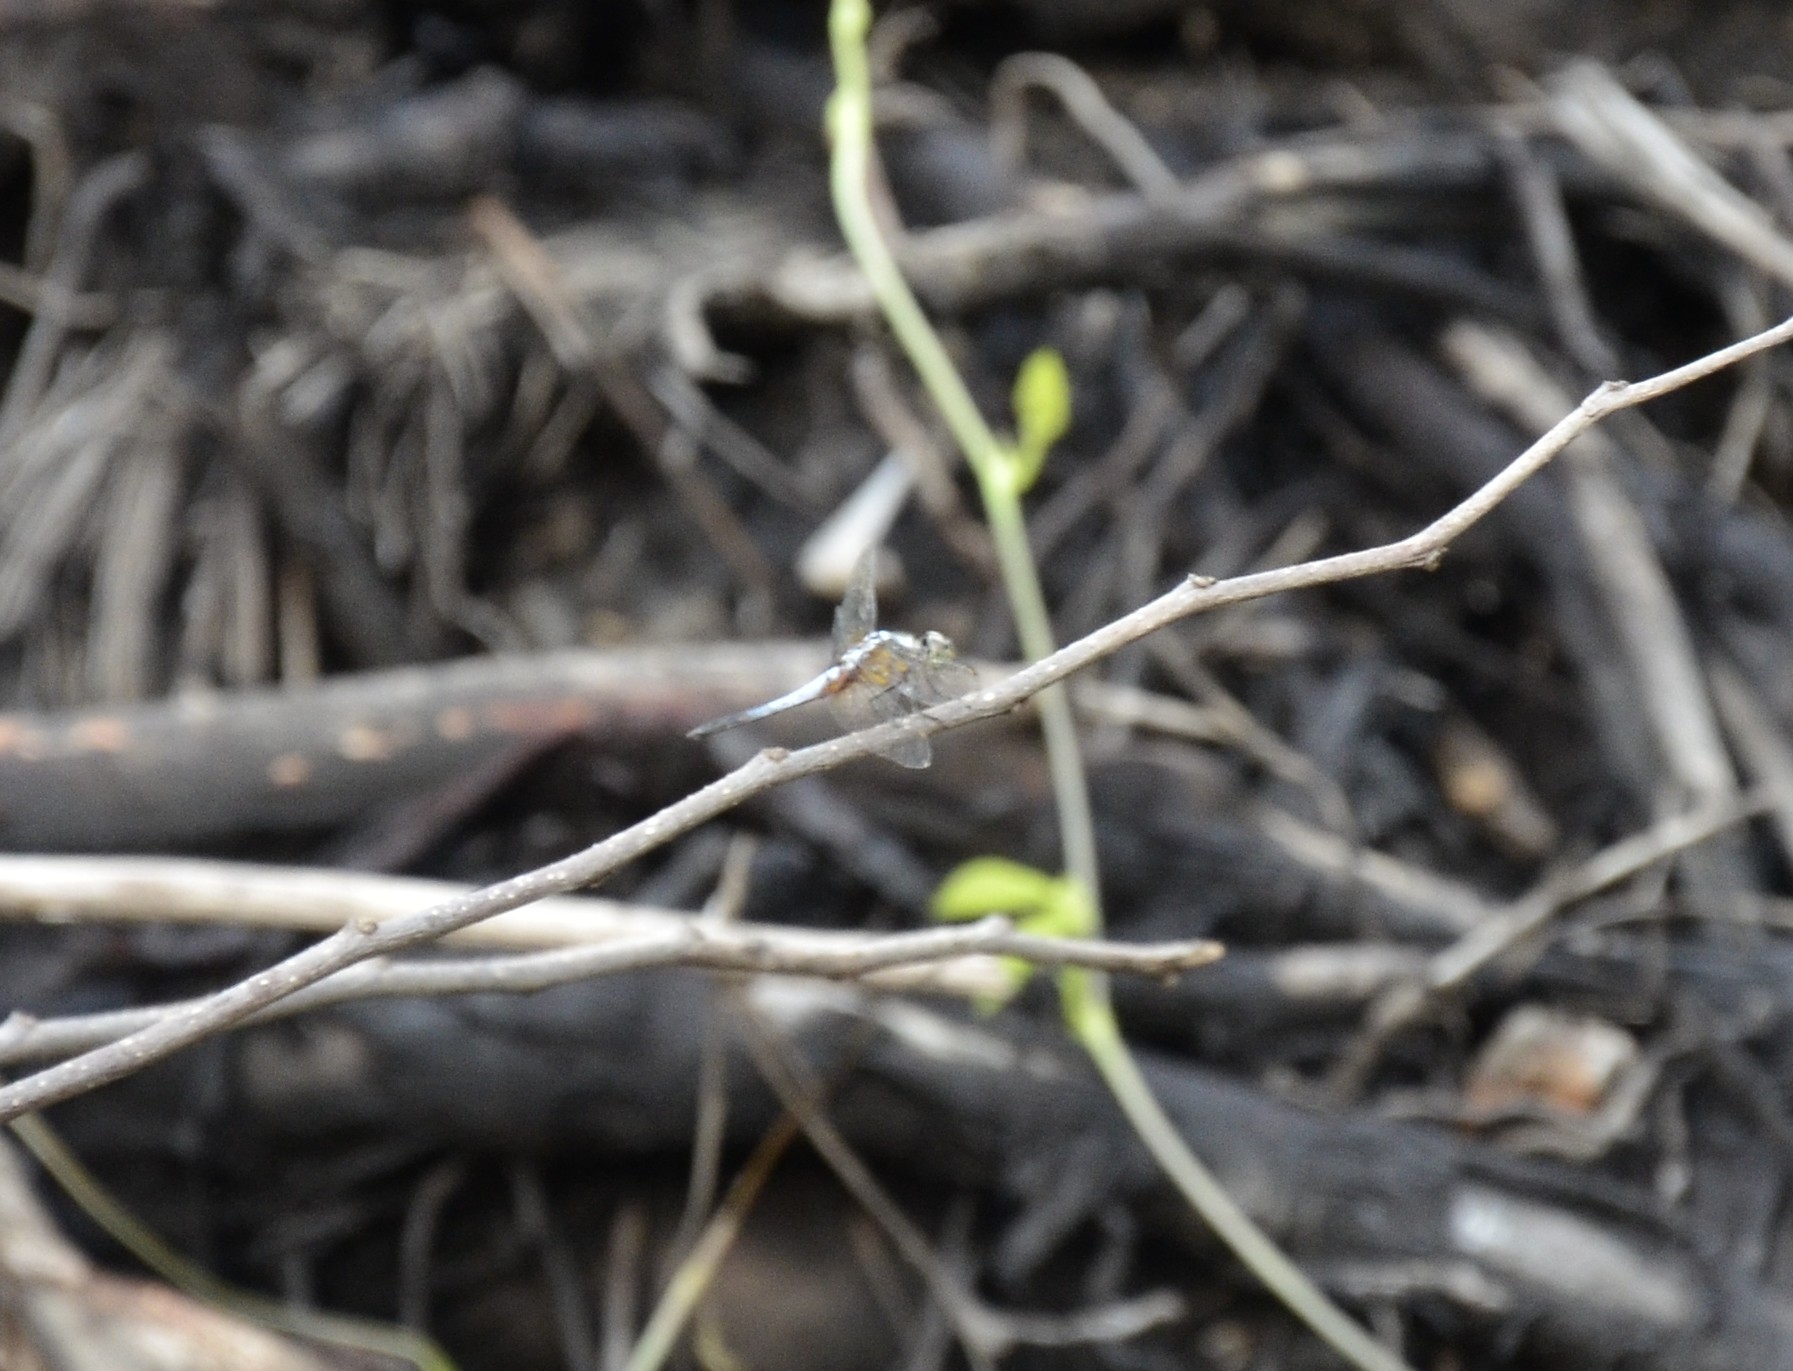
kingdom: Animalia
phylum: Arthropoda
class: Insecta
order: Odonata
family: Libellulidae
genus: Brachydiplax
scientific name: Brachydiplax chalybea
